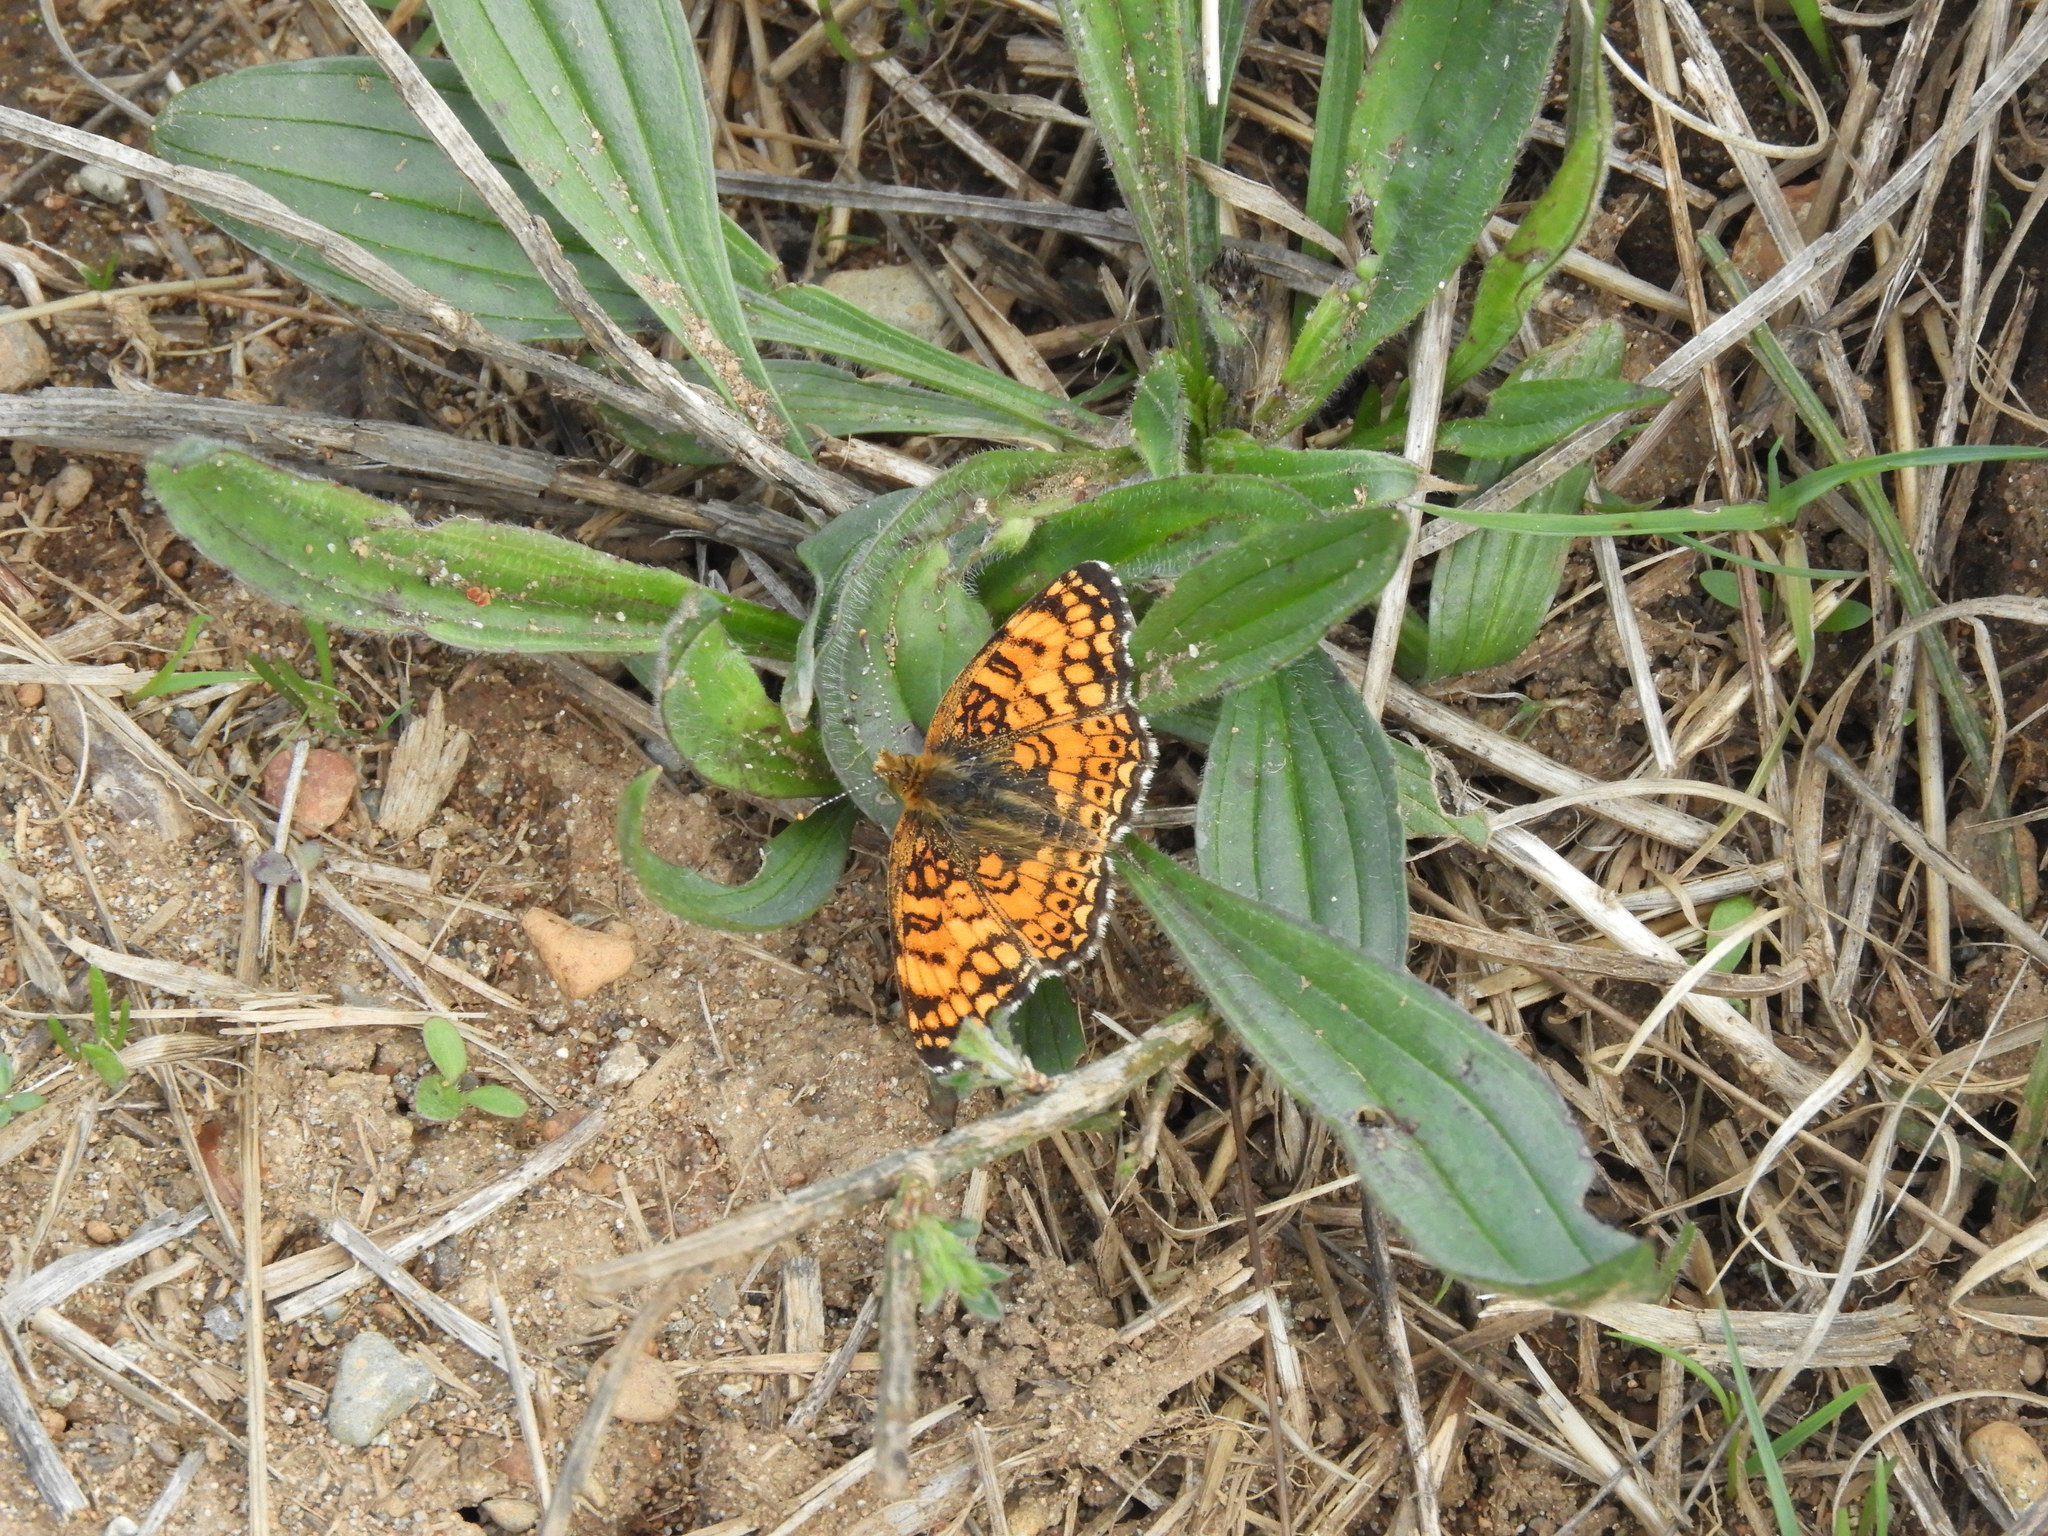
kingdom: Animalia
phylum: Arthropoda
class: Insecta
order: Lepidoptera
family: Nymphalidae
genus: Eresia
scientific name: Eresia aveyrona
